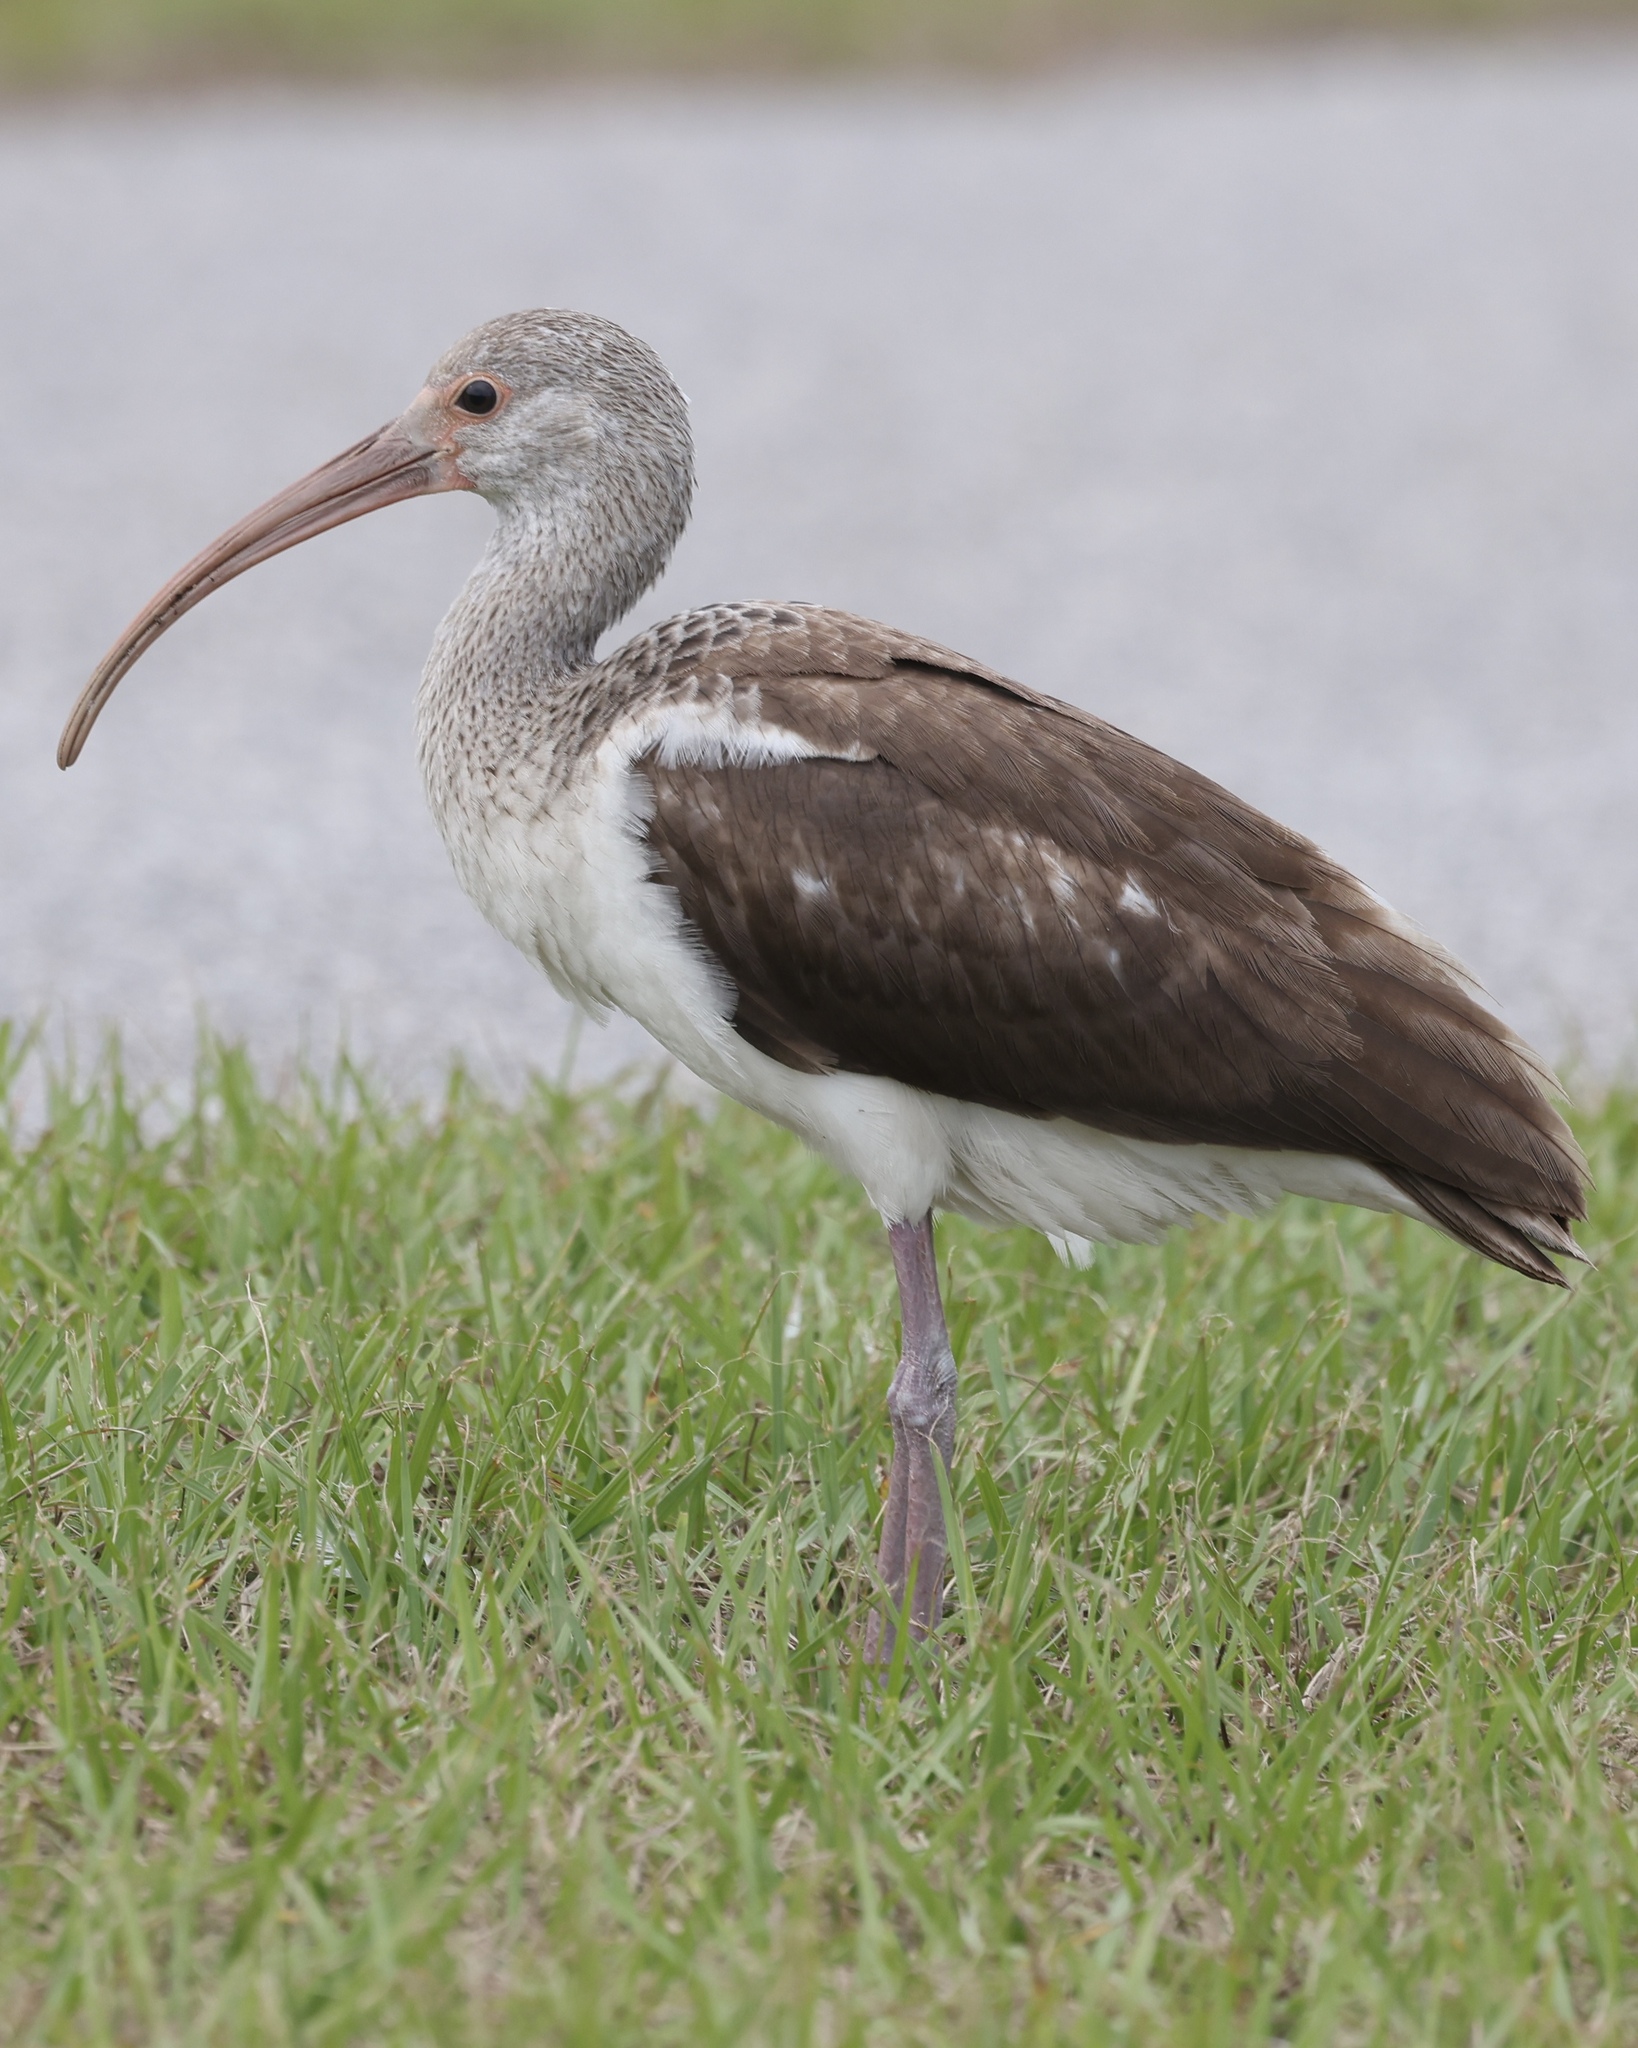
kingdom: Animalia
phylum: Chordata
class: Aves
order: Pelecaniformes
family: Threskiornithidae
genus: Eudocimus
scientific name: Eudocimus albus
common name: White ibis
